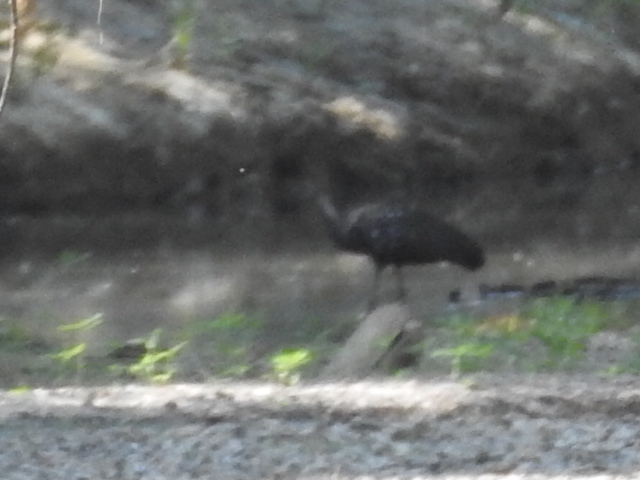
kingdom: Animalia
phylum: Chordata
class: Aves
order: Gruiformes
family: Aramidae
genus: Aramus
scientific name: Aramus guarauna
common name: Limpkin
